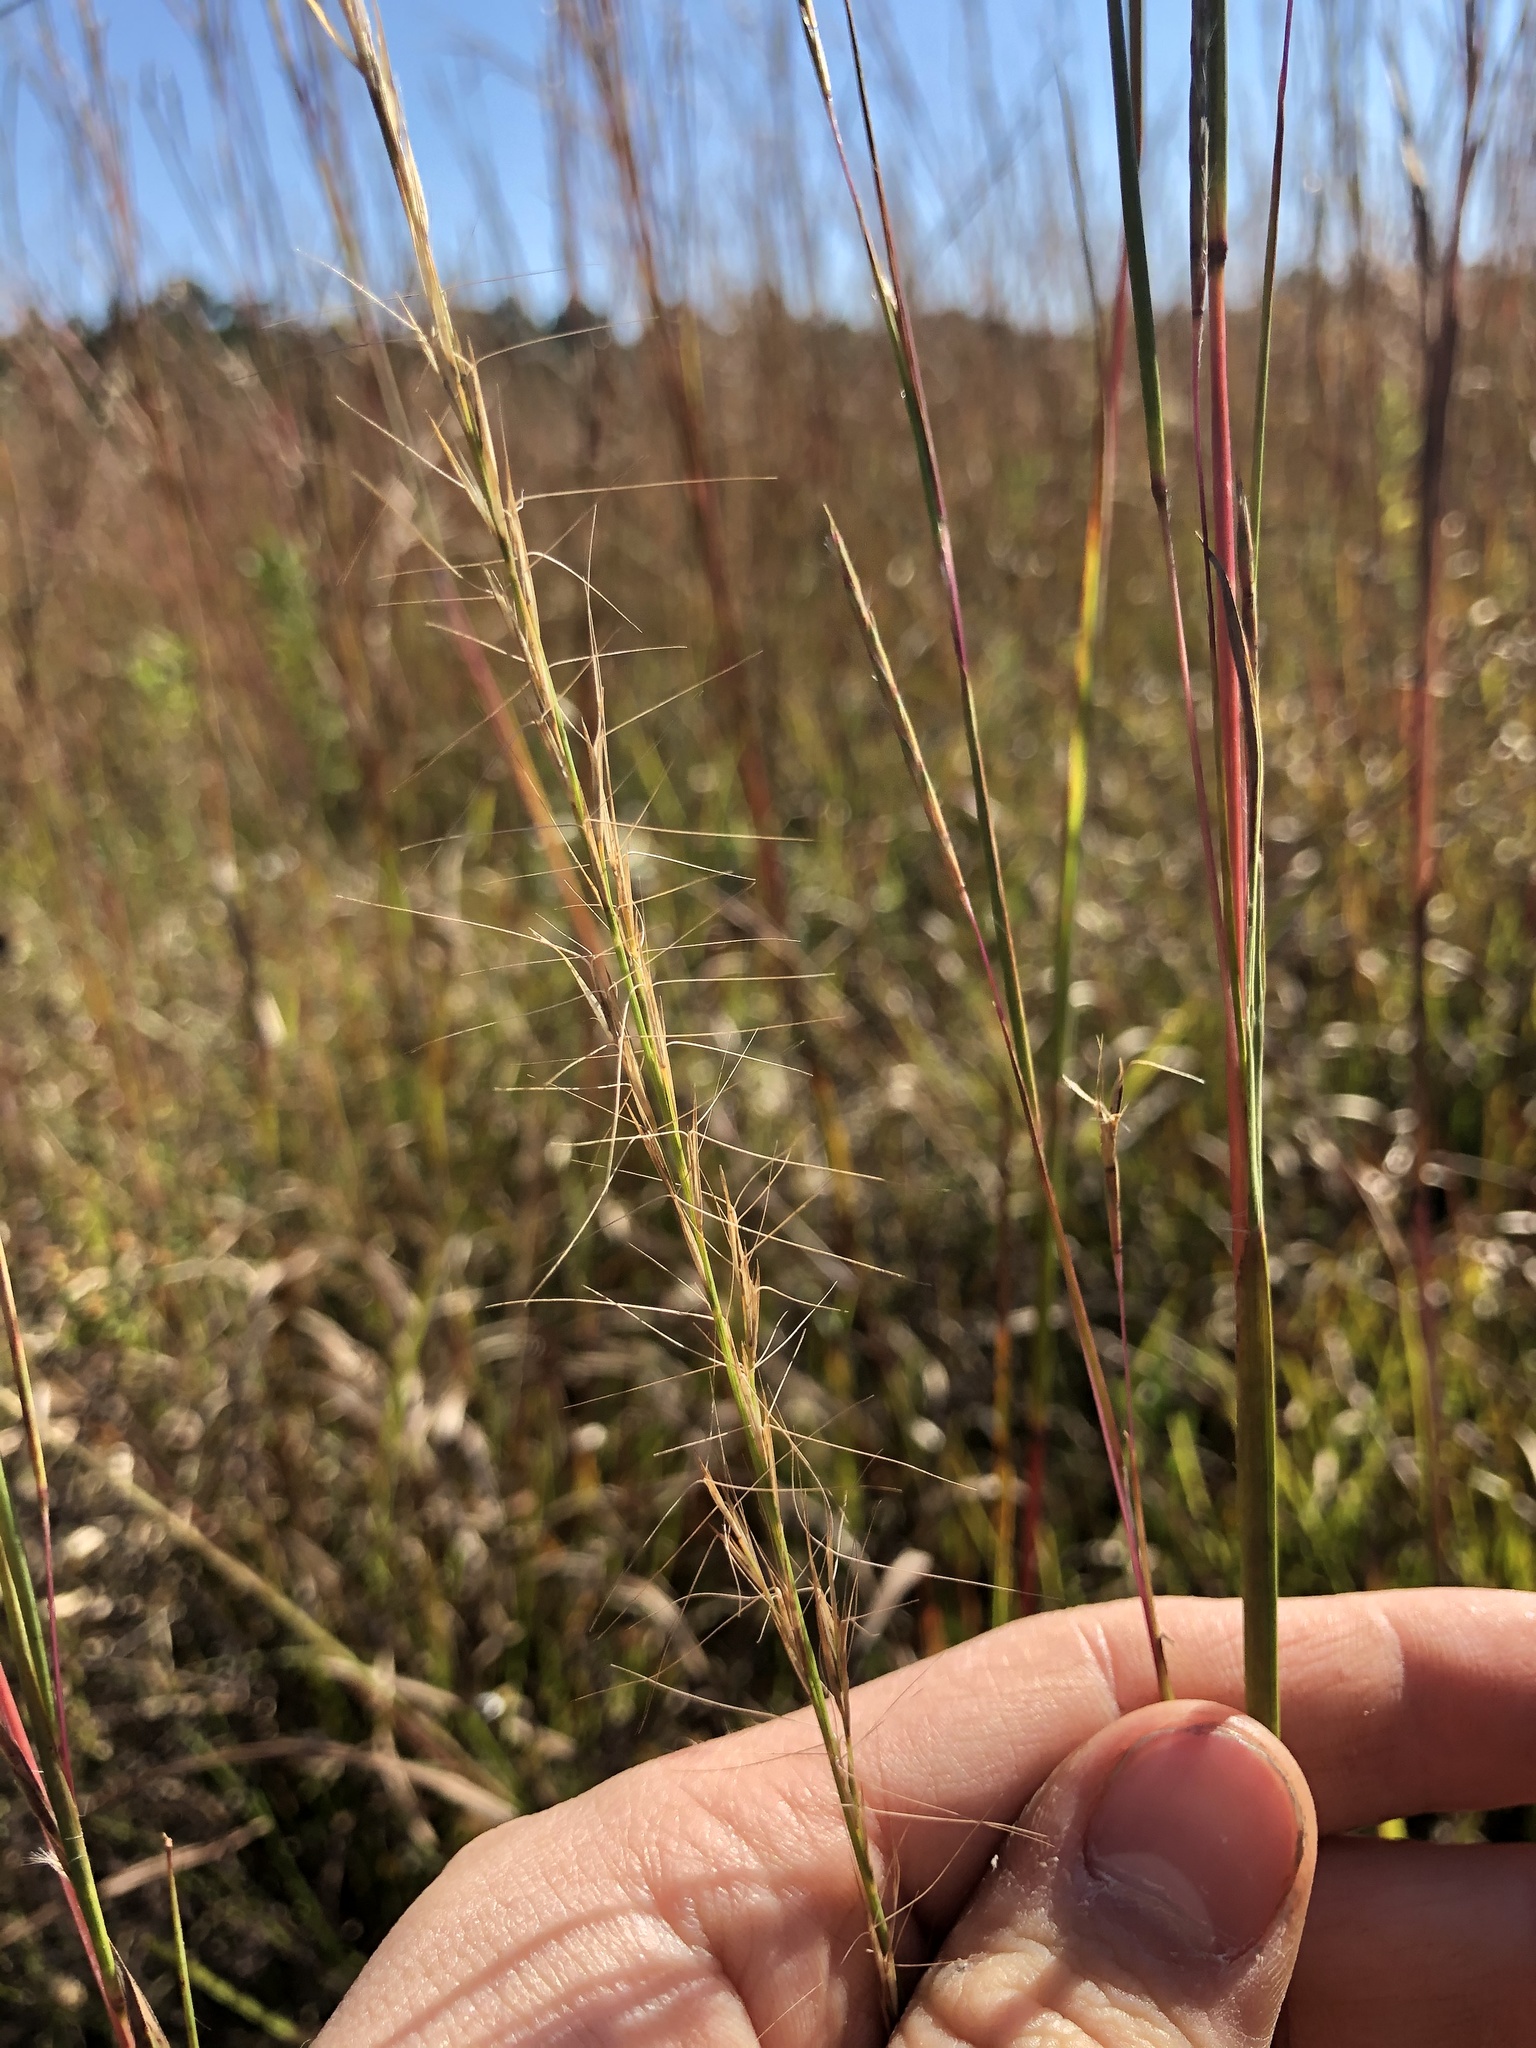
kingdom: Plantae
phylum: Tracheophyta
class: Liliopsida
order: Poales
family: Poaceae
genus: Aristida
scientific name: Aristida purpurascens
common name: Arrow-feather
